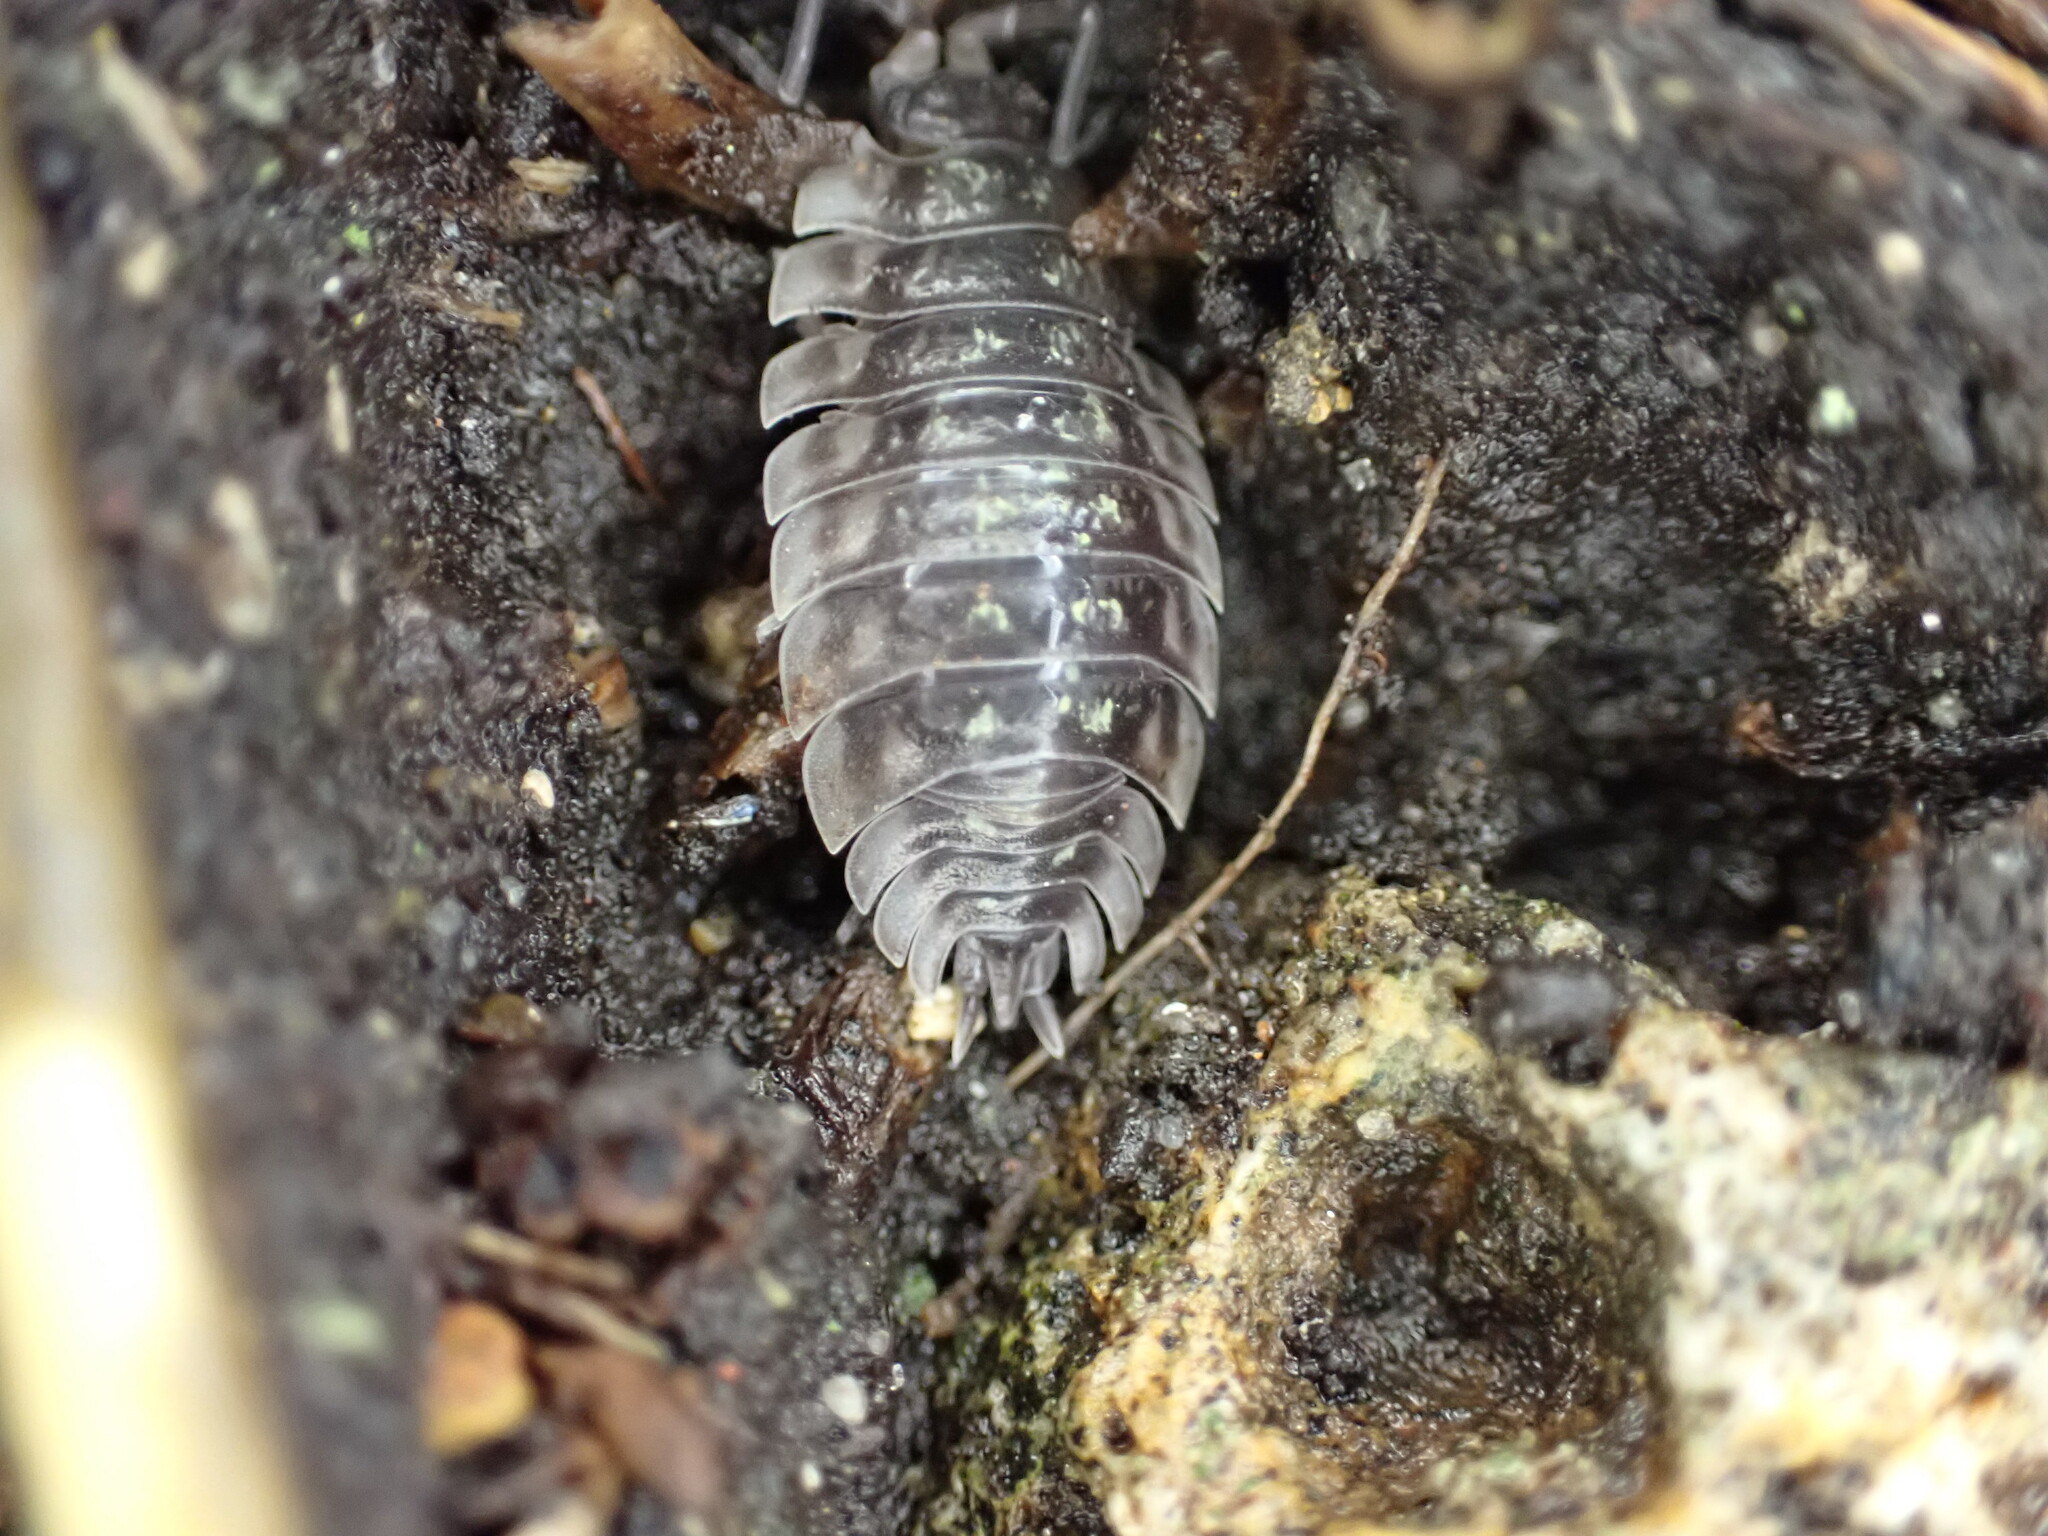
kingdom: Animalia
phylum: Arthropoda
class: Malacostraca
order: Isopoda
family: Oniscidae
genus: Oniscus
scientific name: Oniscus asellus
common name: Common shiny woodlouse
